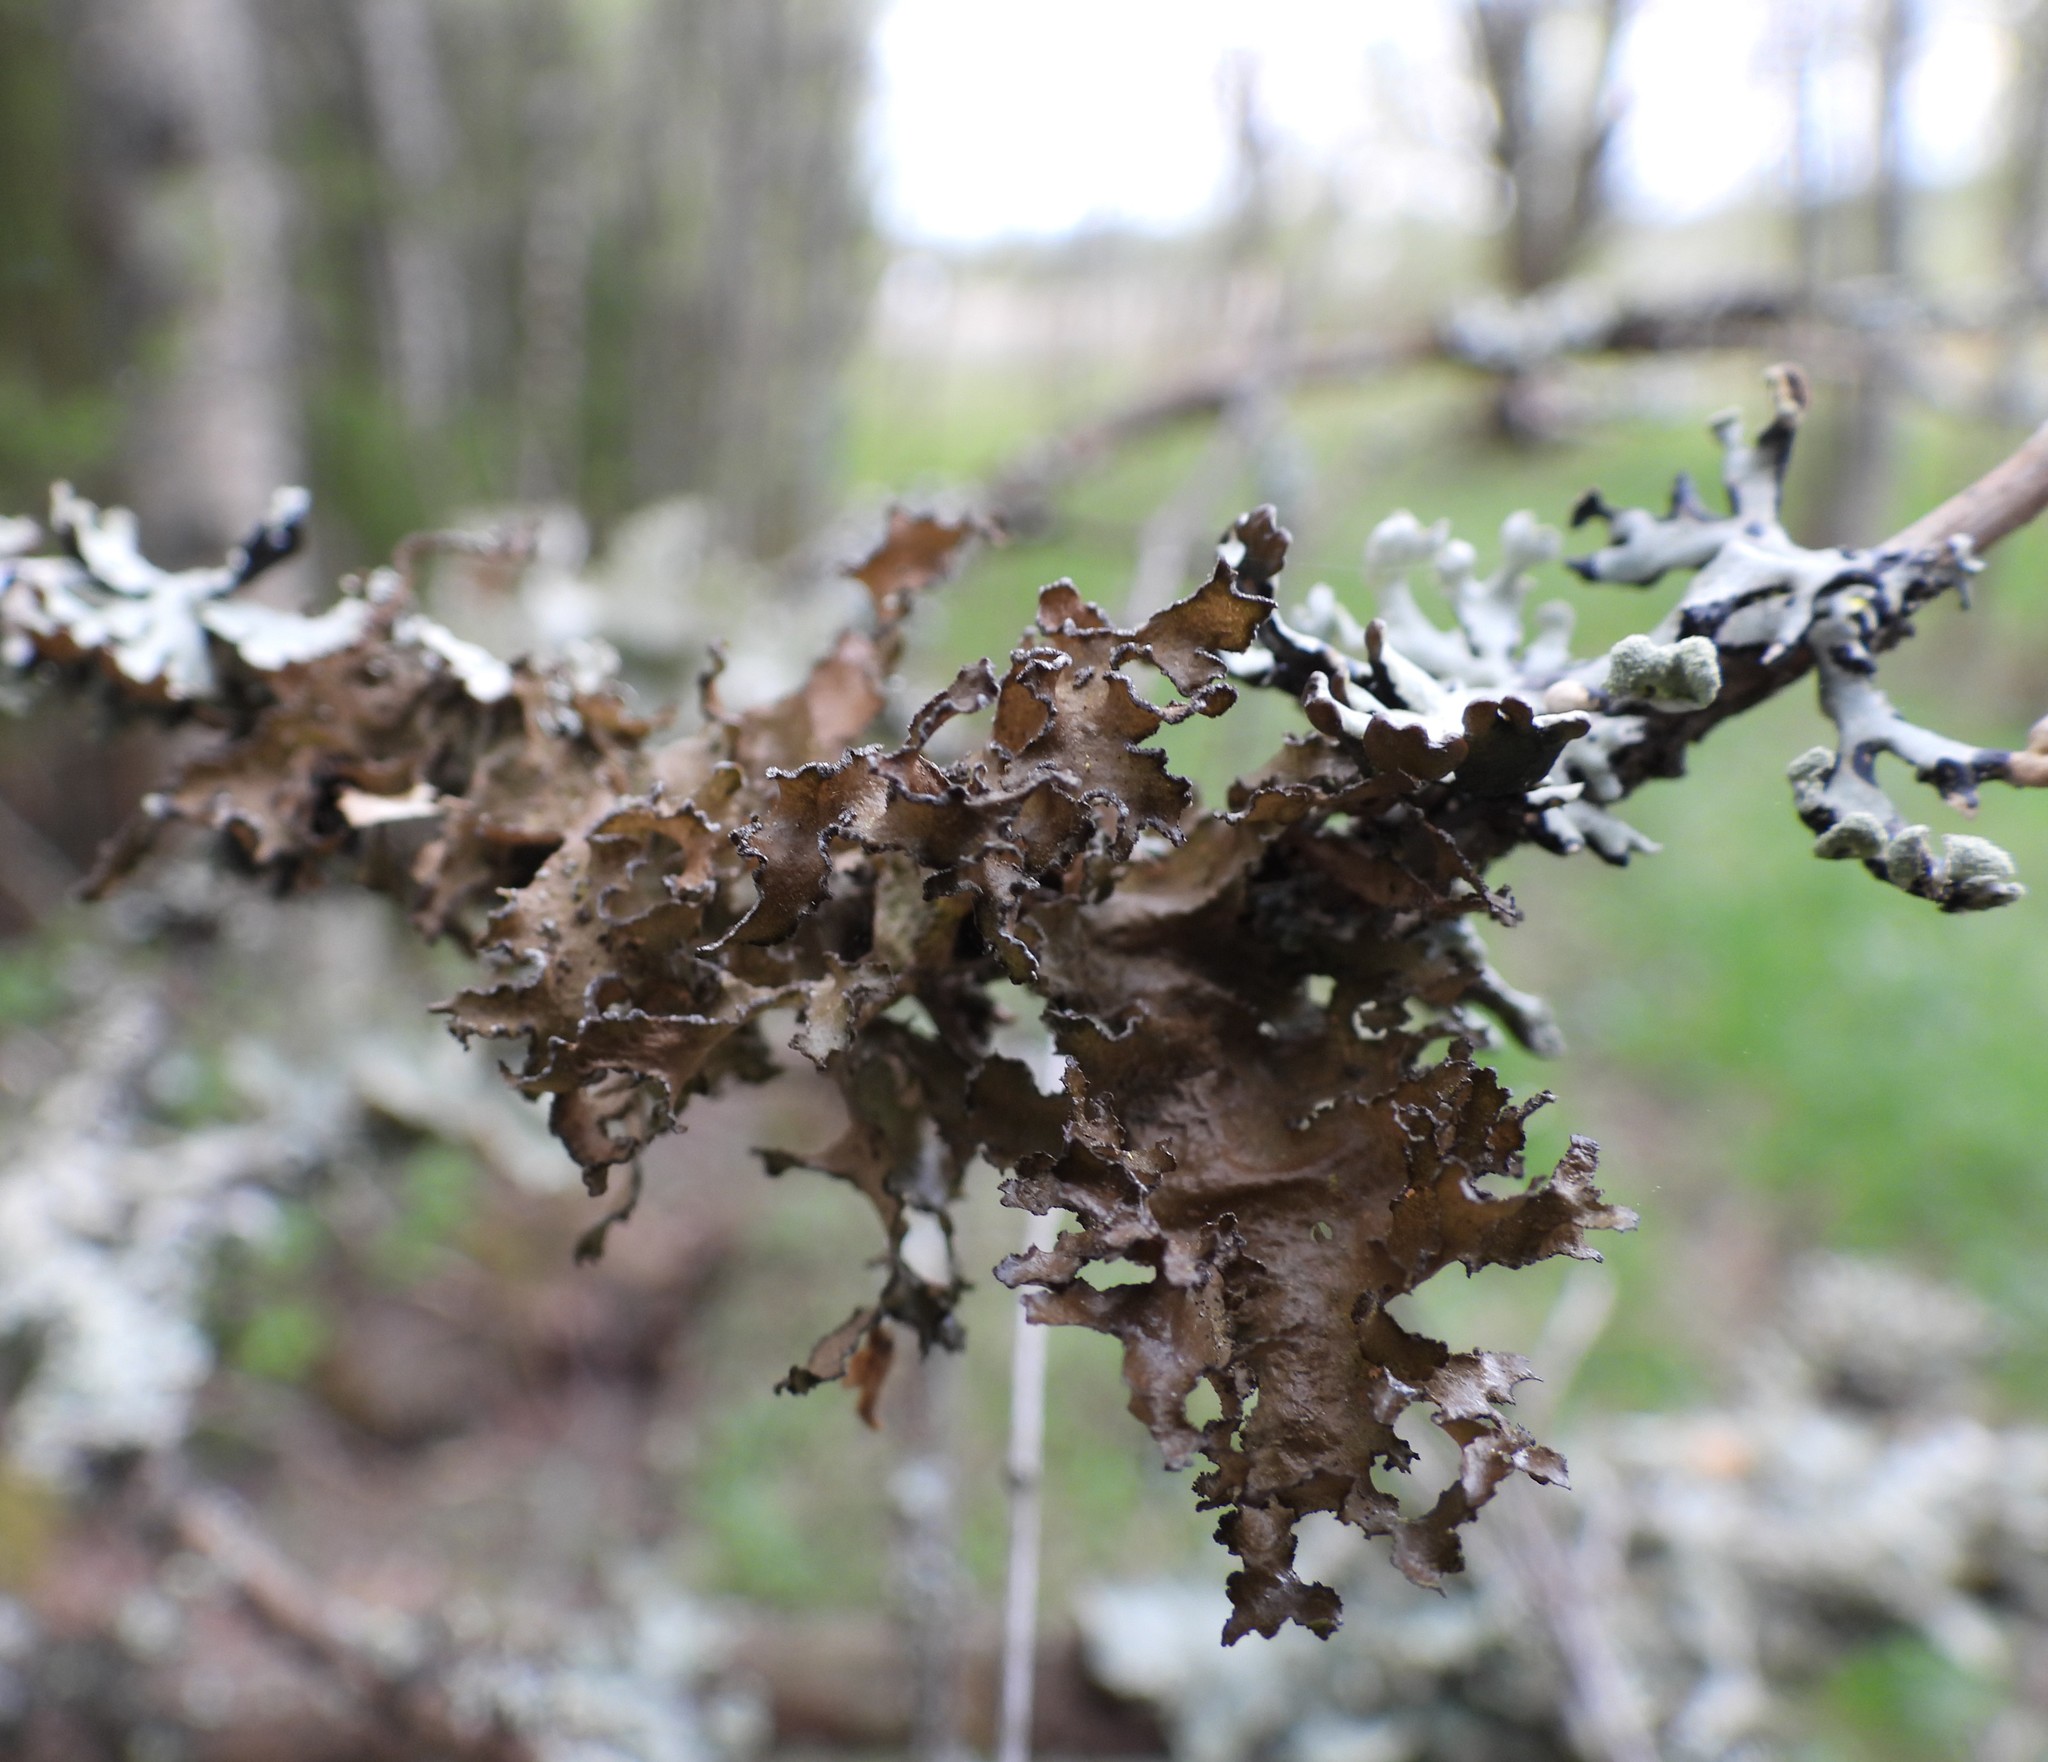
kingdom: Fungi
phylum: Ascomycota
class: Lecanoromycetes
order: Lecanorales
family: Parmeliaceae
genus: Nephromopsis
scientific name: Nephromopsis chlorophylla
